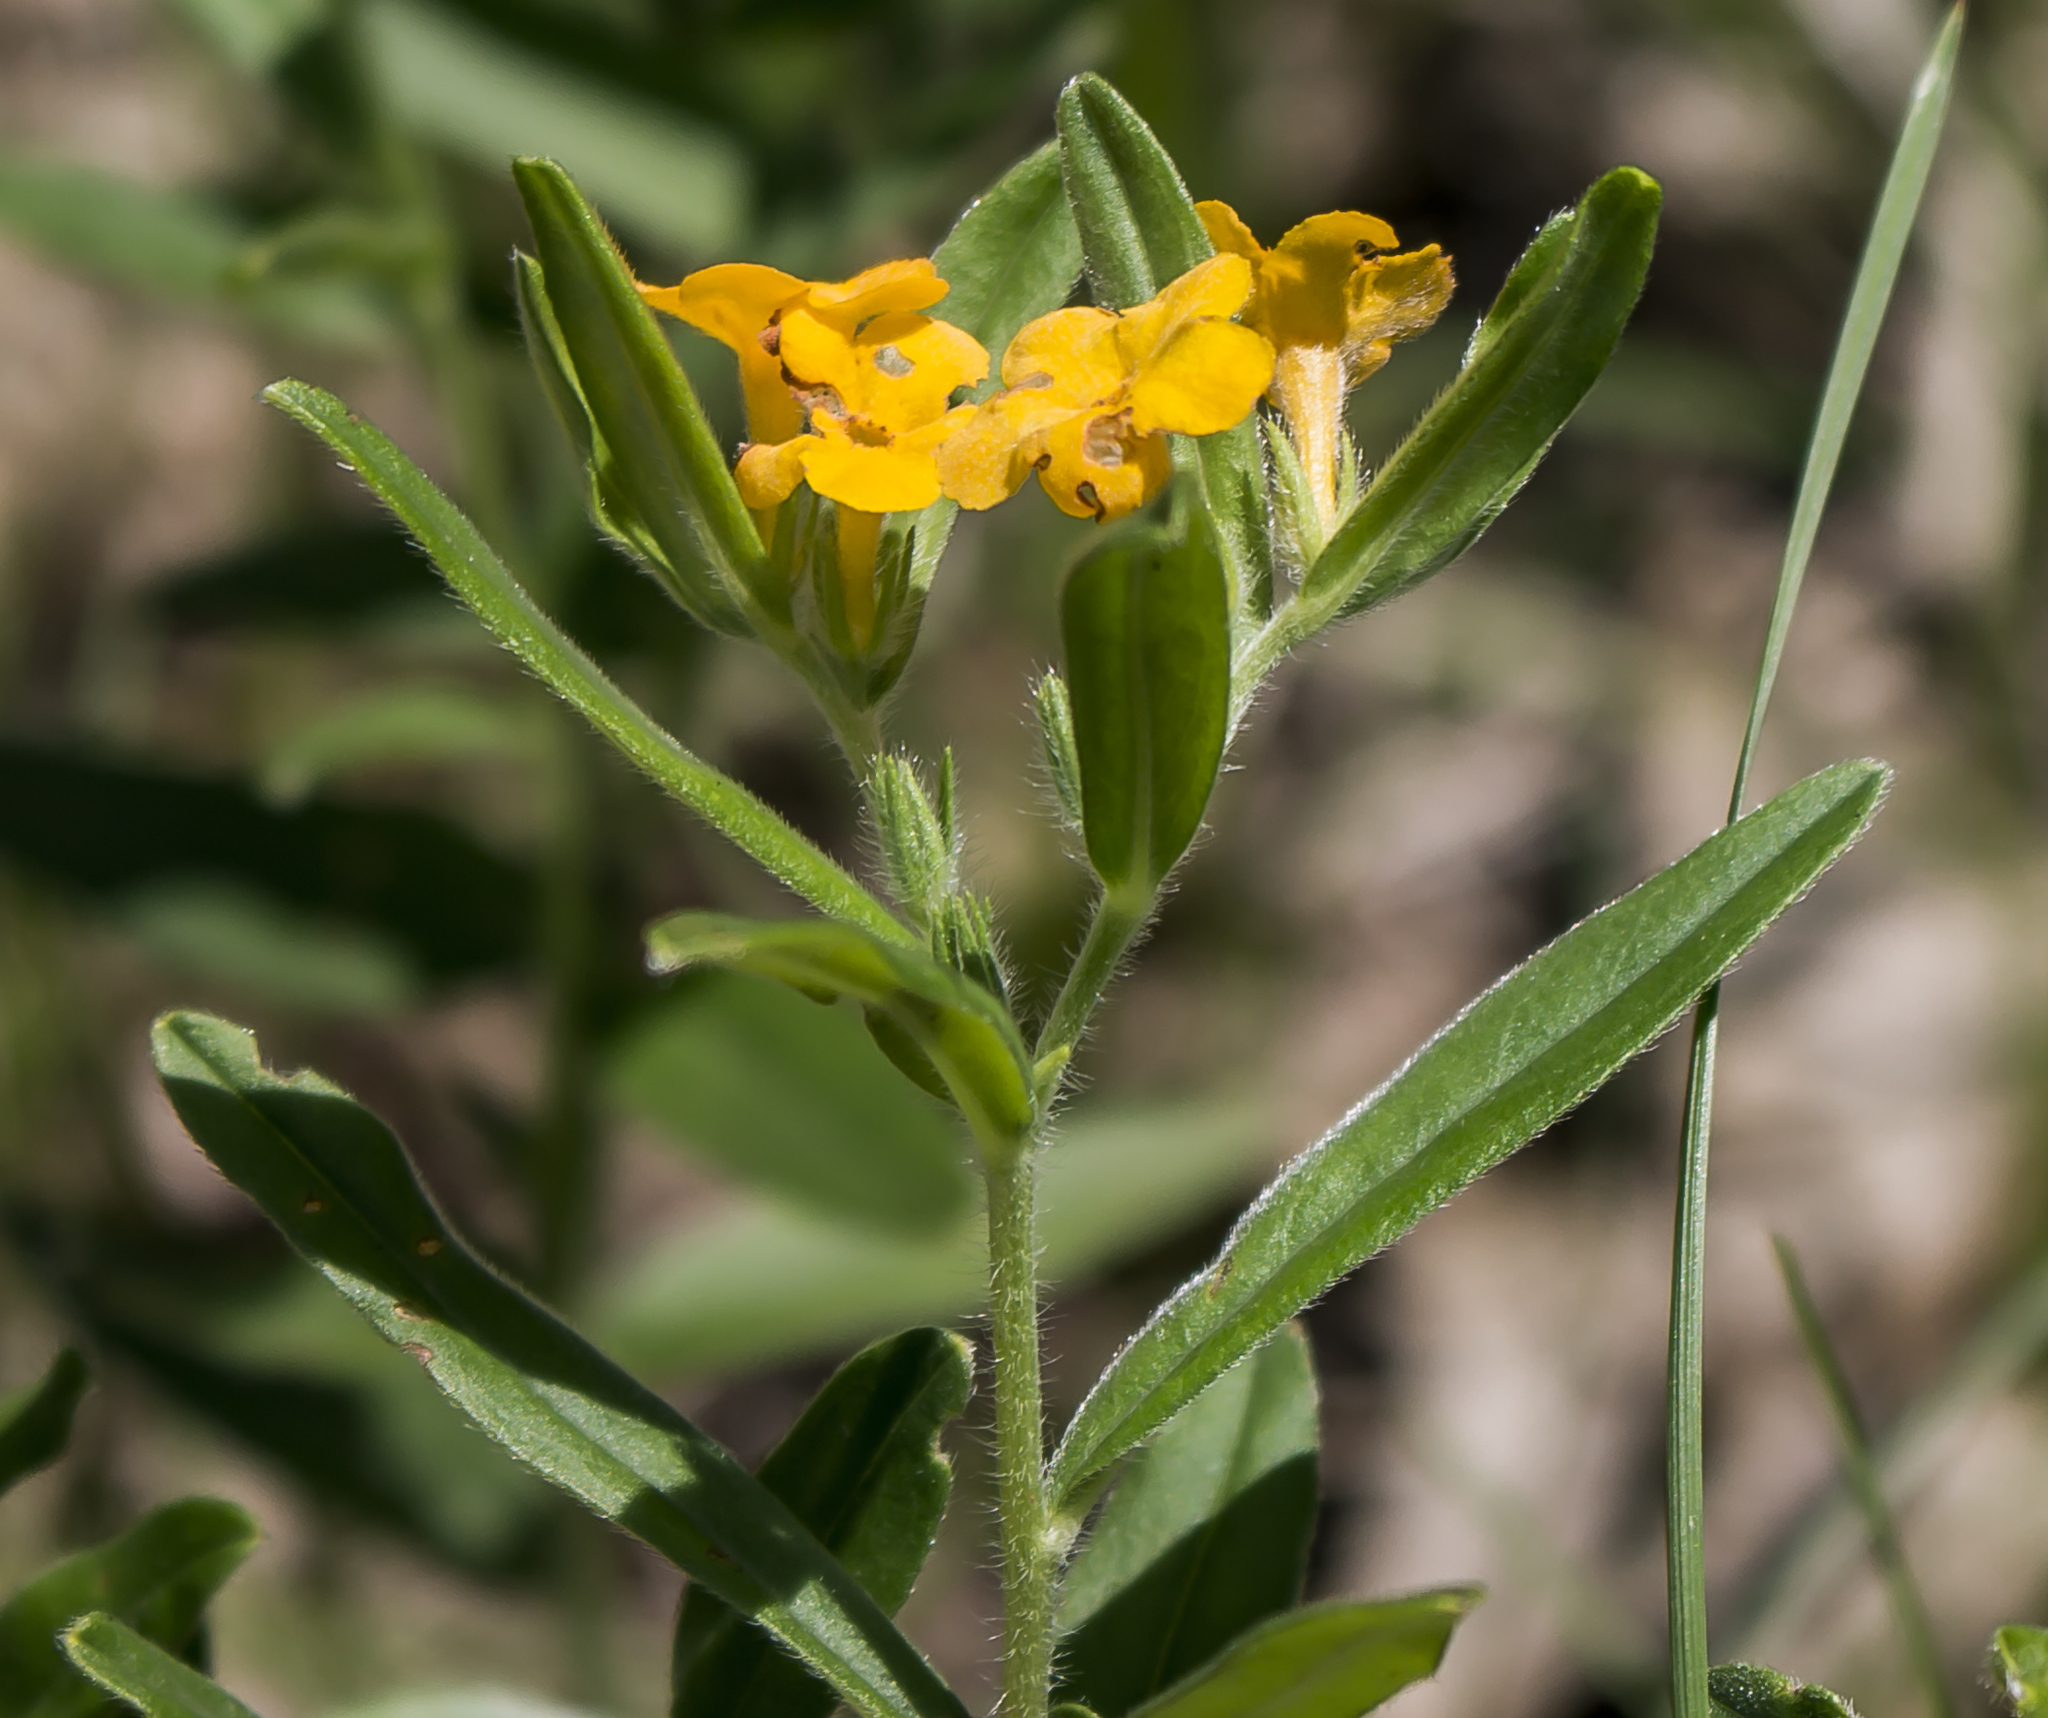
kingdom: Plantae
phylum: Tracheophyta
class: Magnoliopsida
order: Boraginales
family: Boraginaceae
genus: Lithospermum
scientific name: Lithospermum canescens
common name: Hoary puccoon
